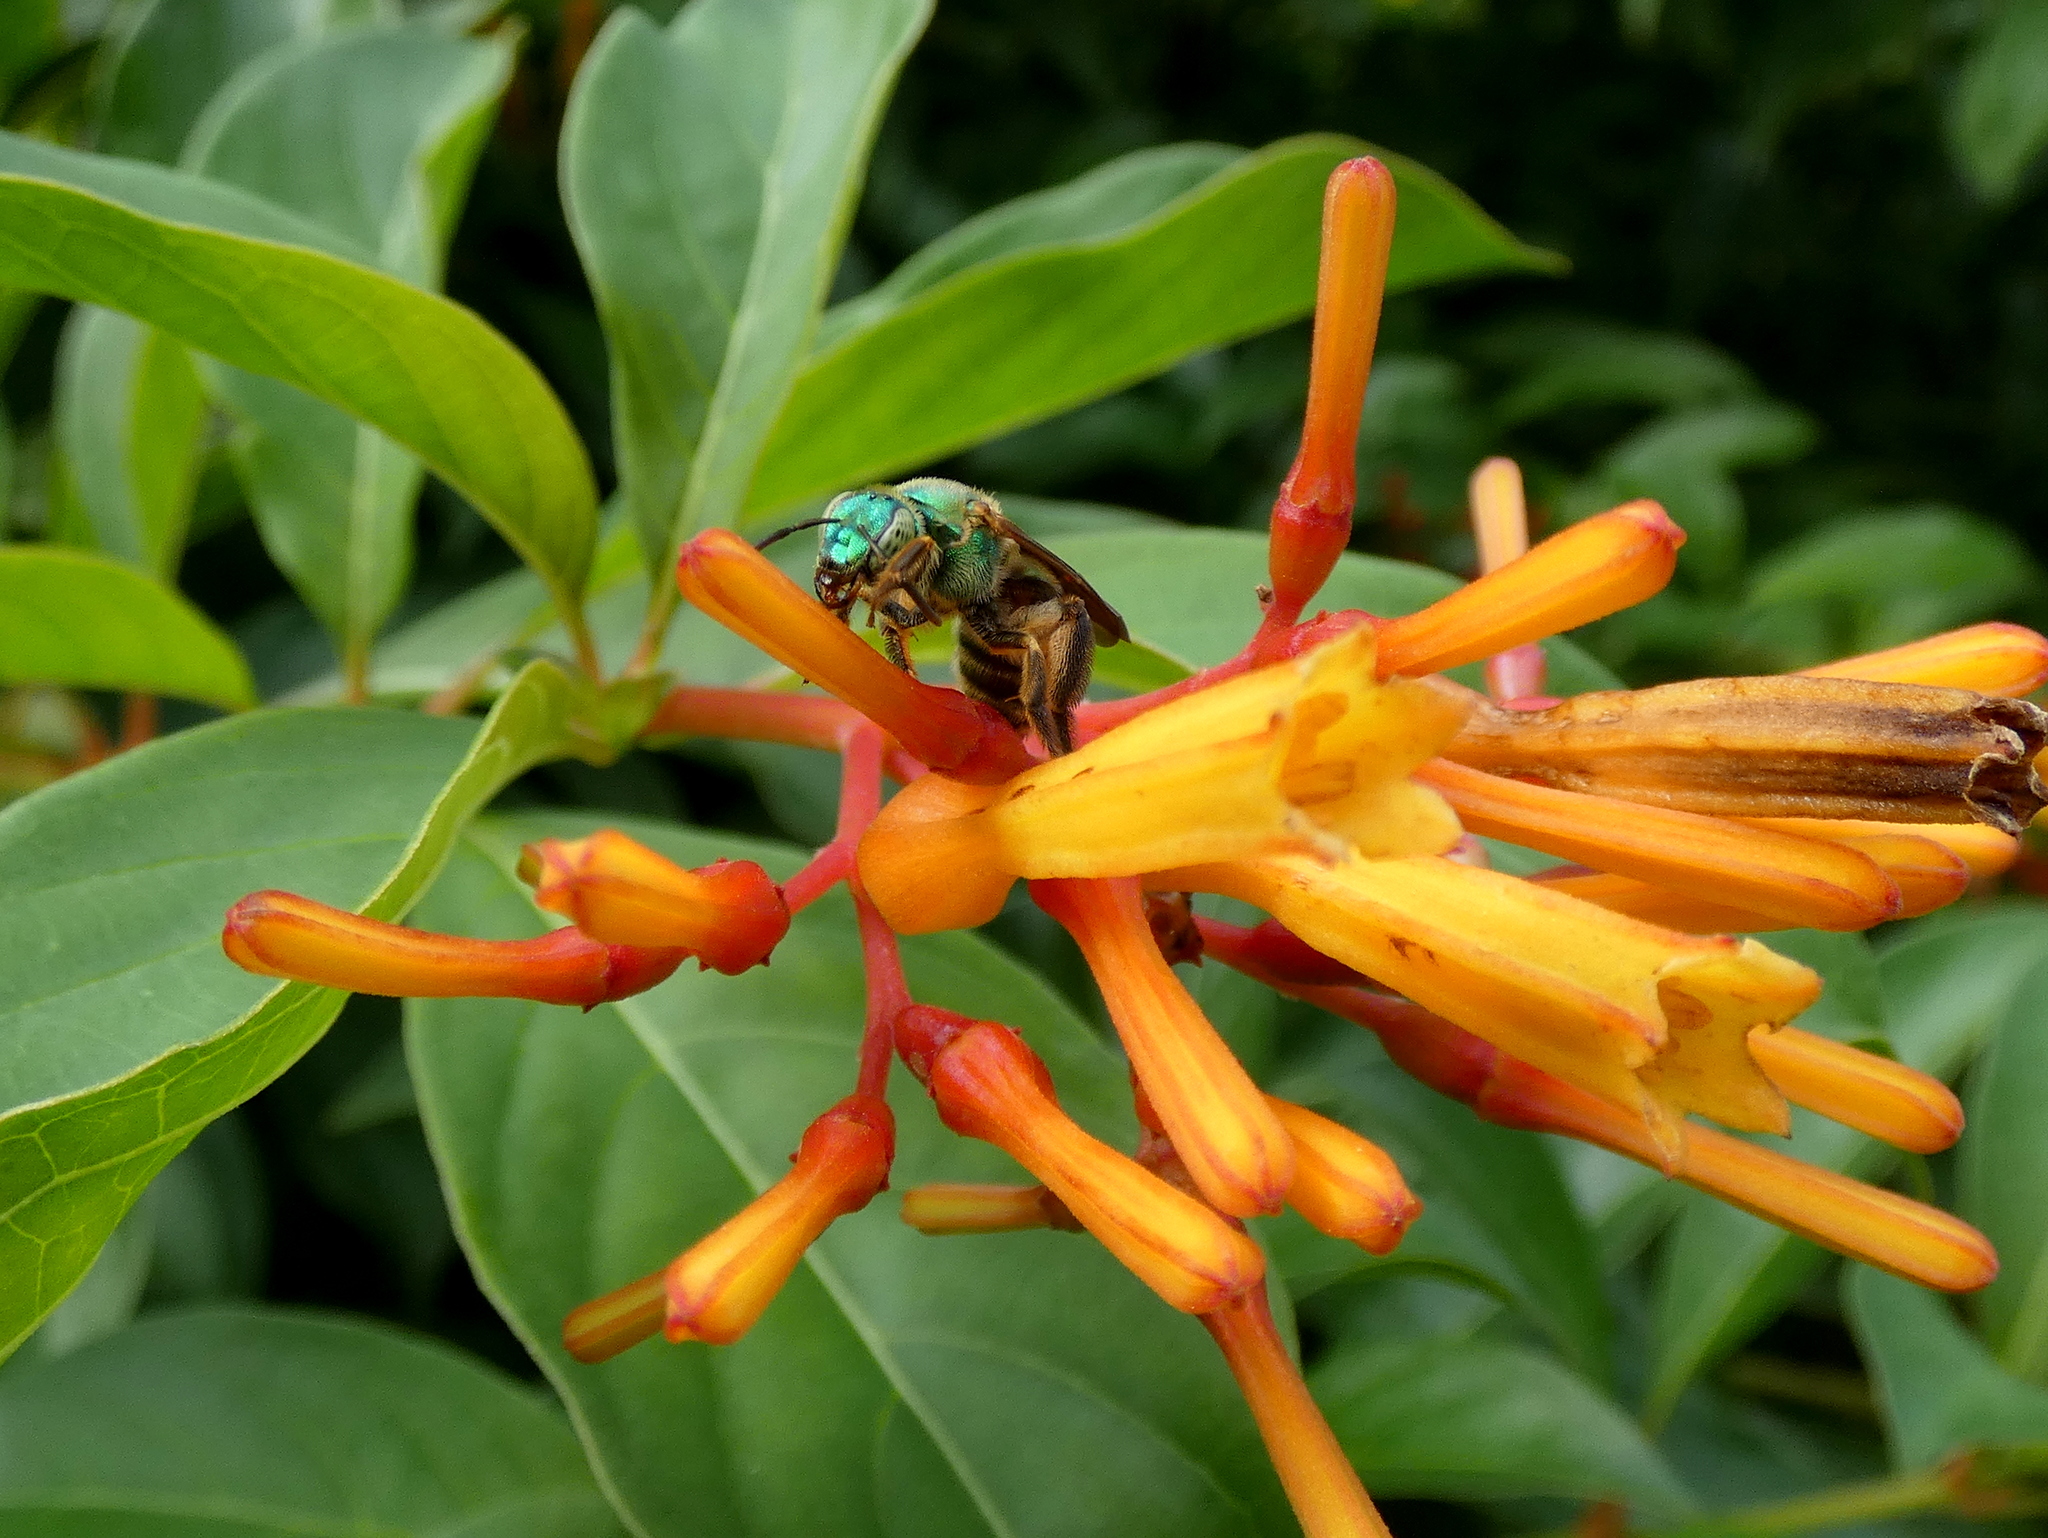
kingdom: Animalia
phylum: Arthropoda
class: Insecta
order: Hymenoptera
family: Halictidae
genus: Agapostemon
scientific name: Agapostemon splendens
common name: Brown-winged striped sweat bee
